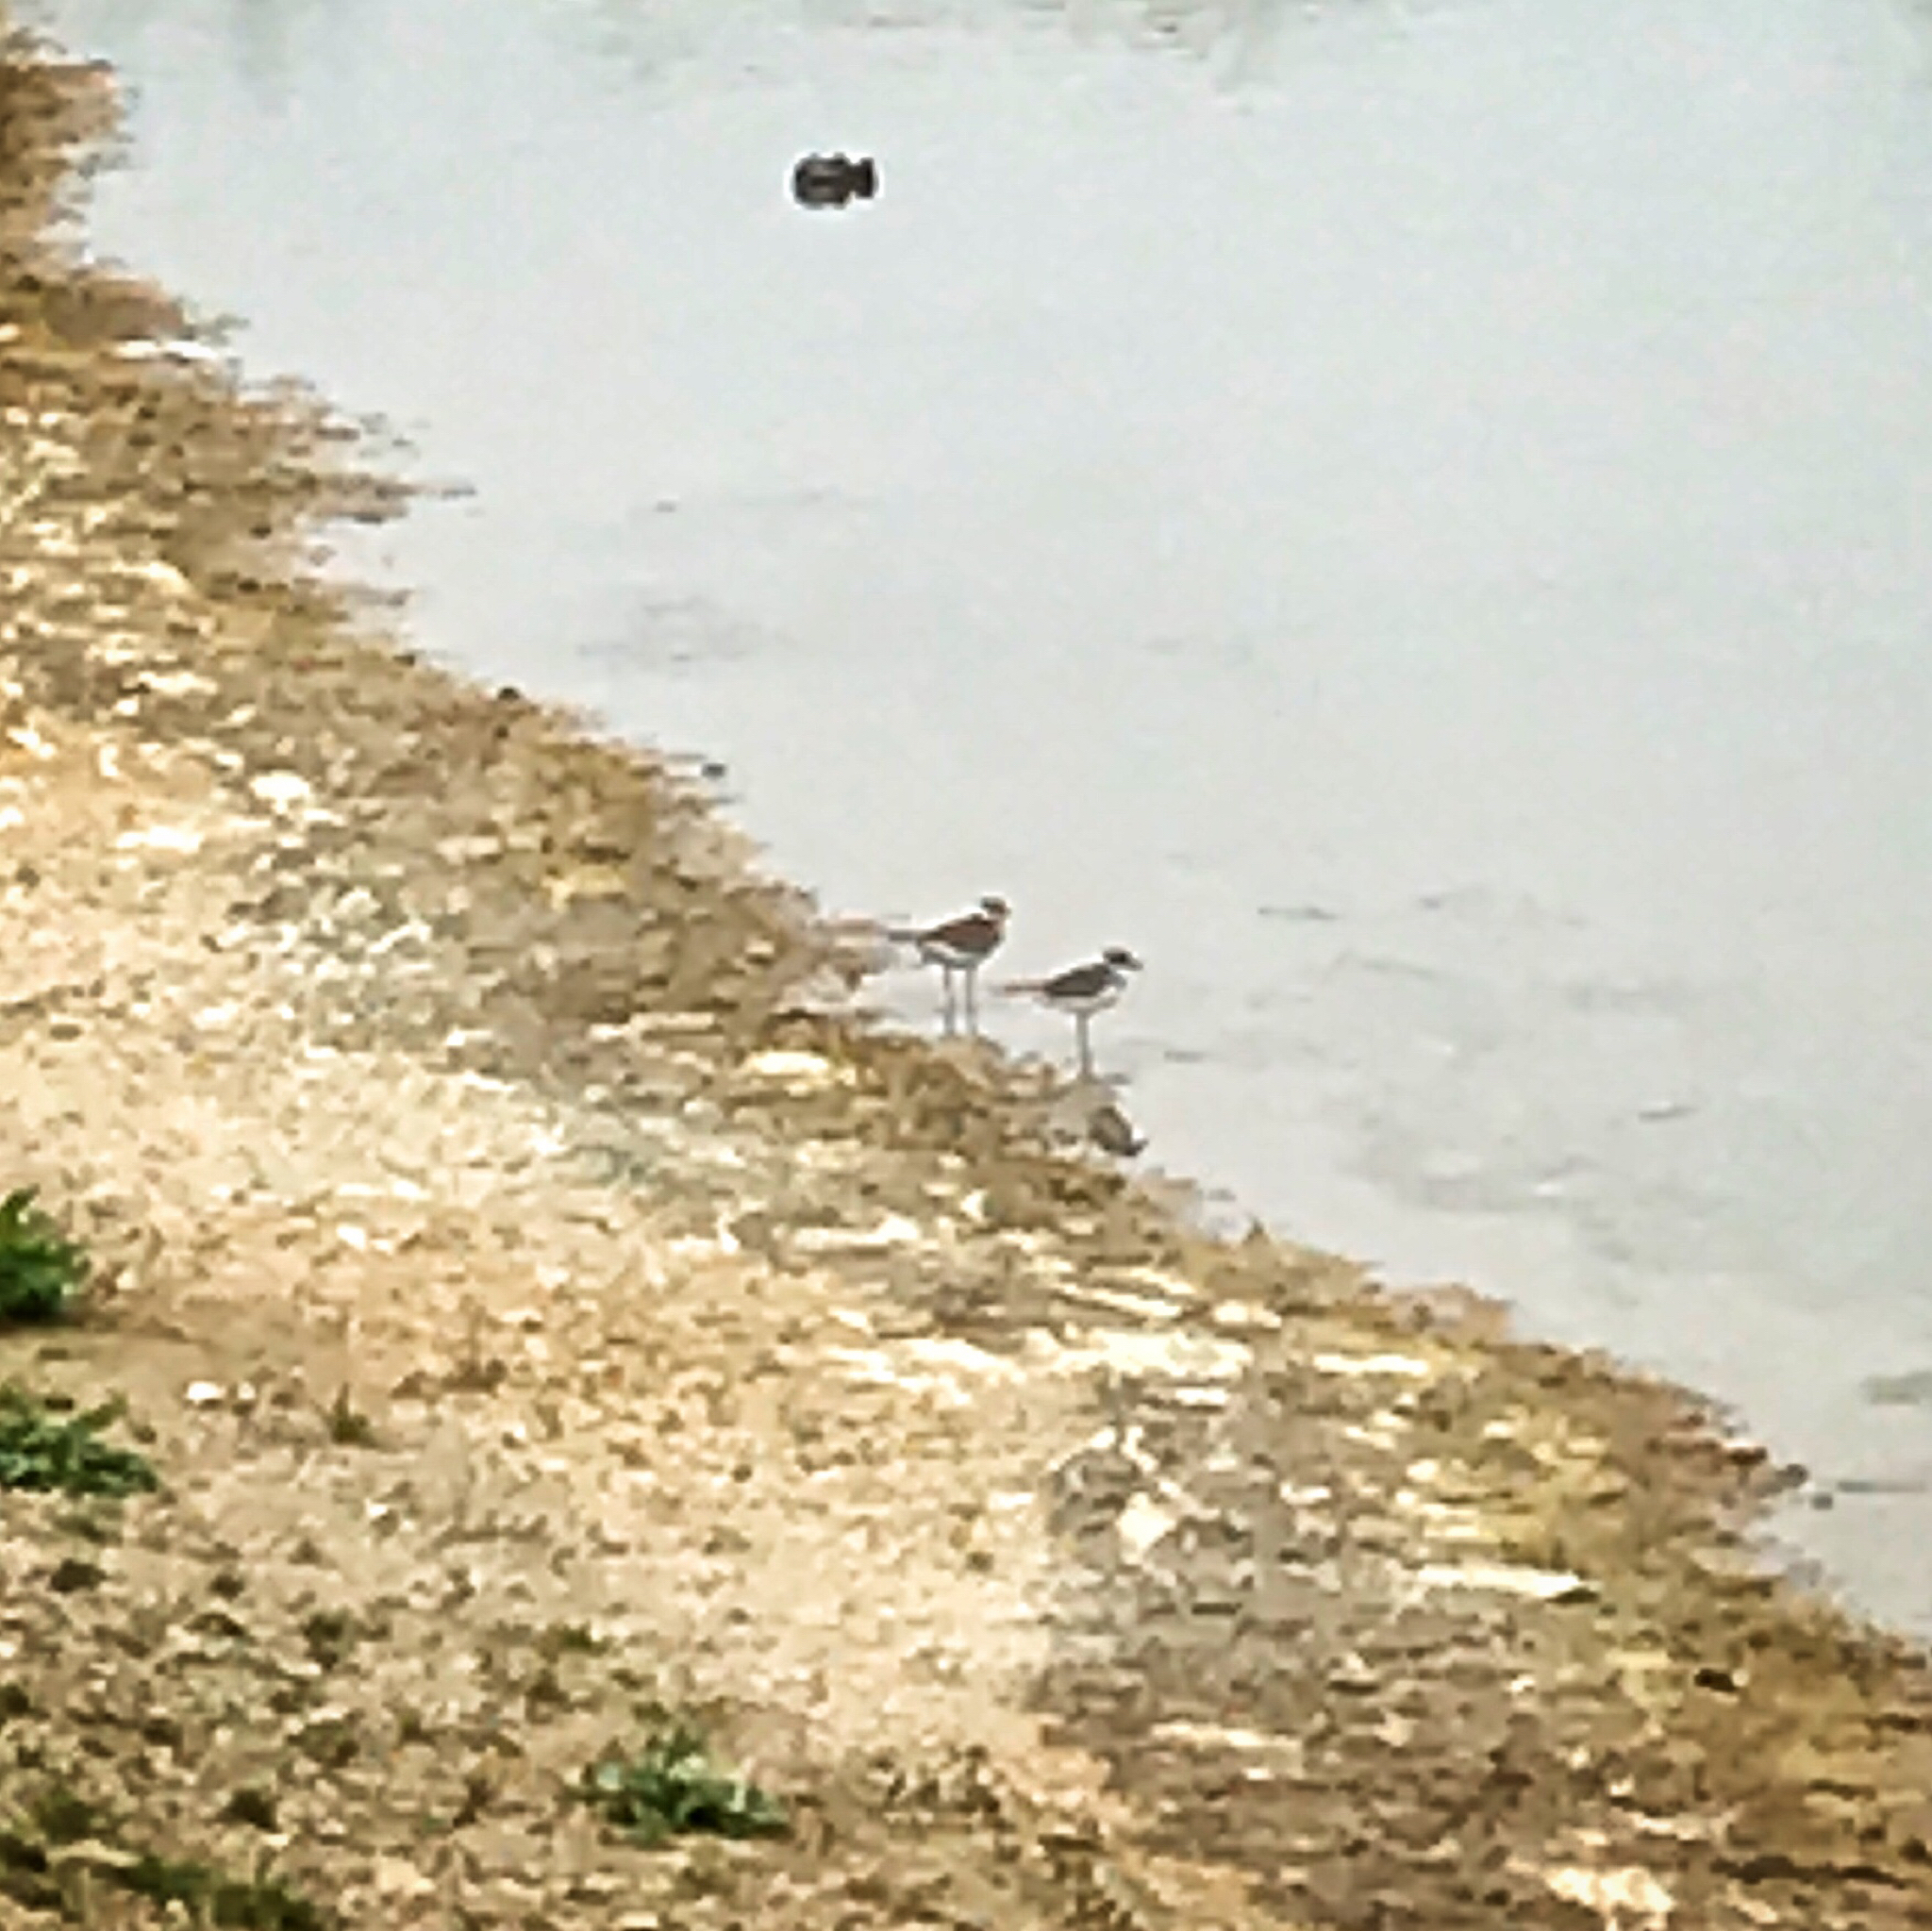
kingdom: Animalia
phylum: Chordata
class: Aves
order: Charadriiformes
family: Charadriidae
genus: Charadrius
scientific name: Charadrius vociferus
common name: Killdeer
